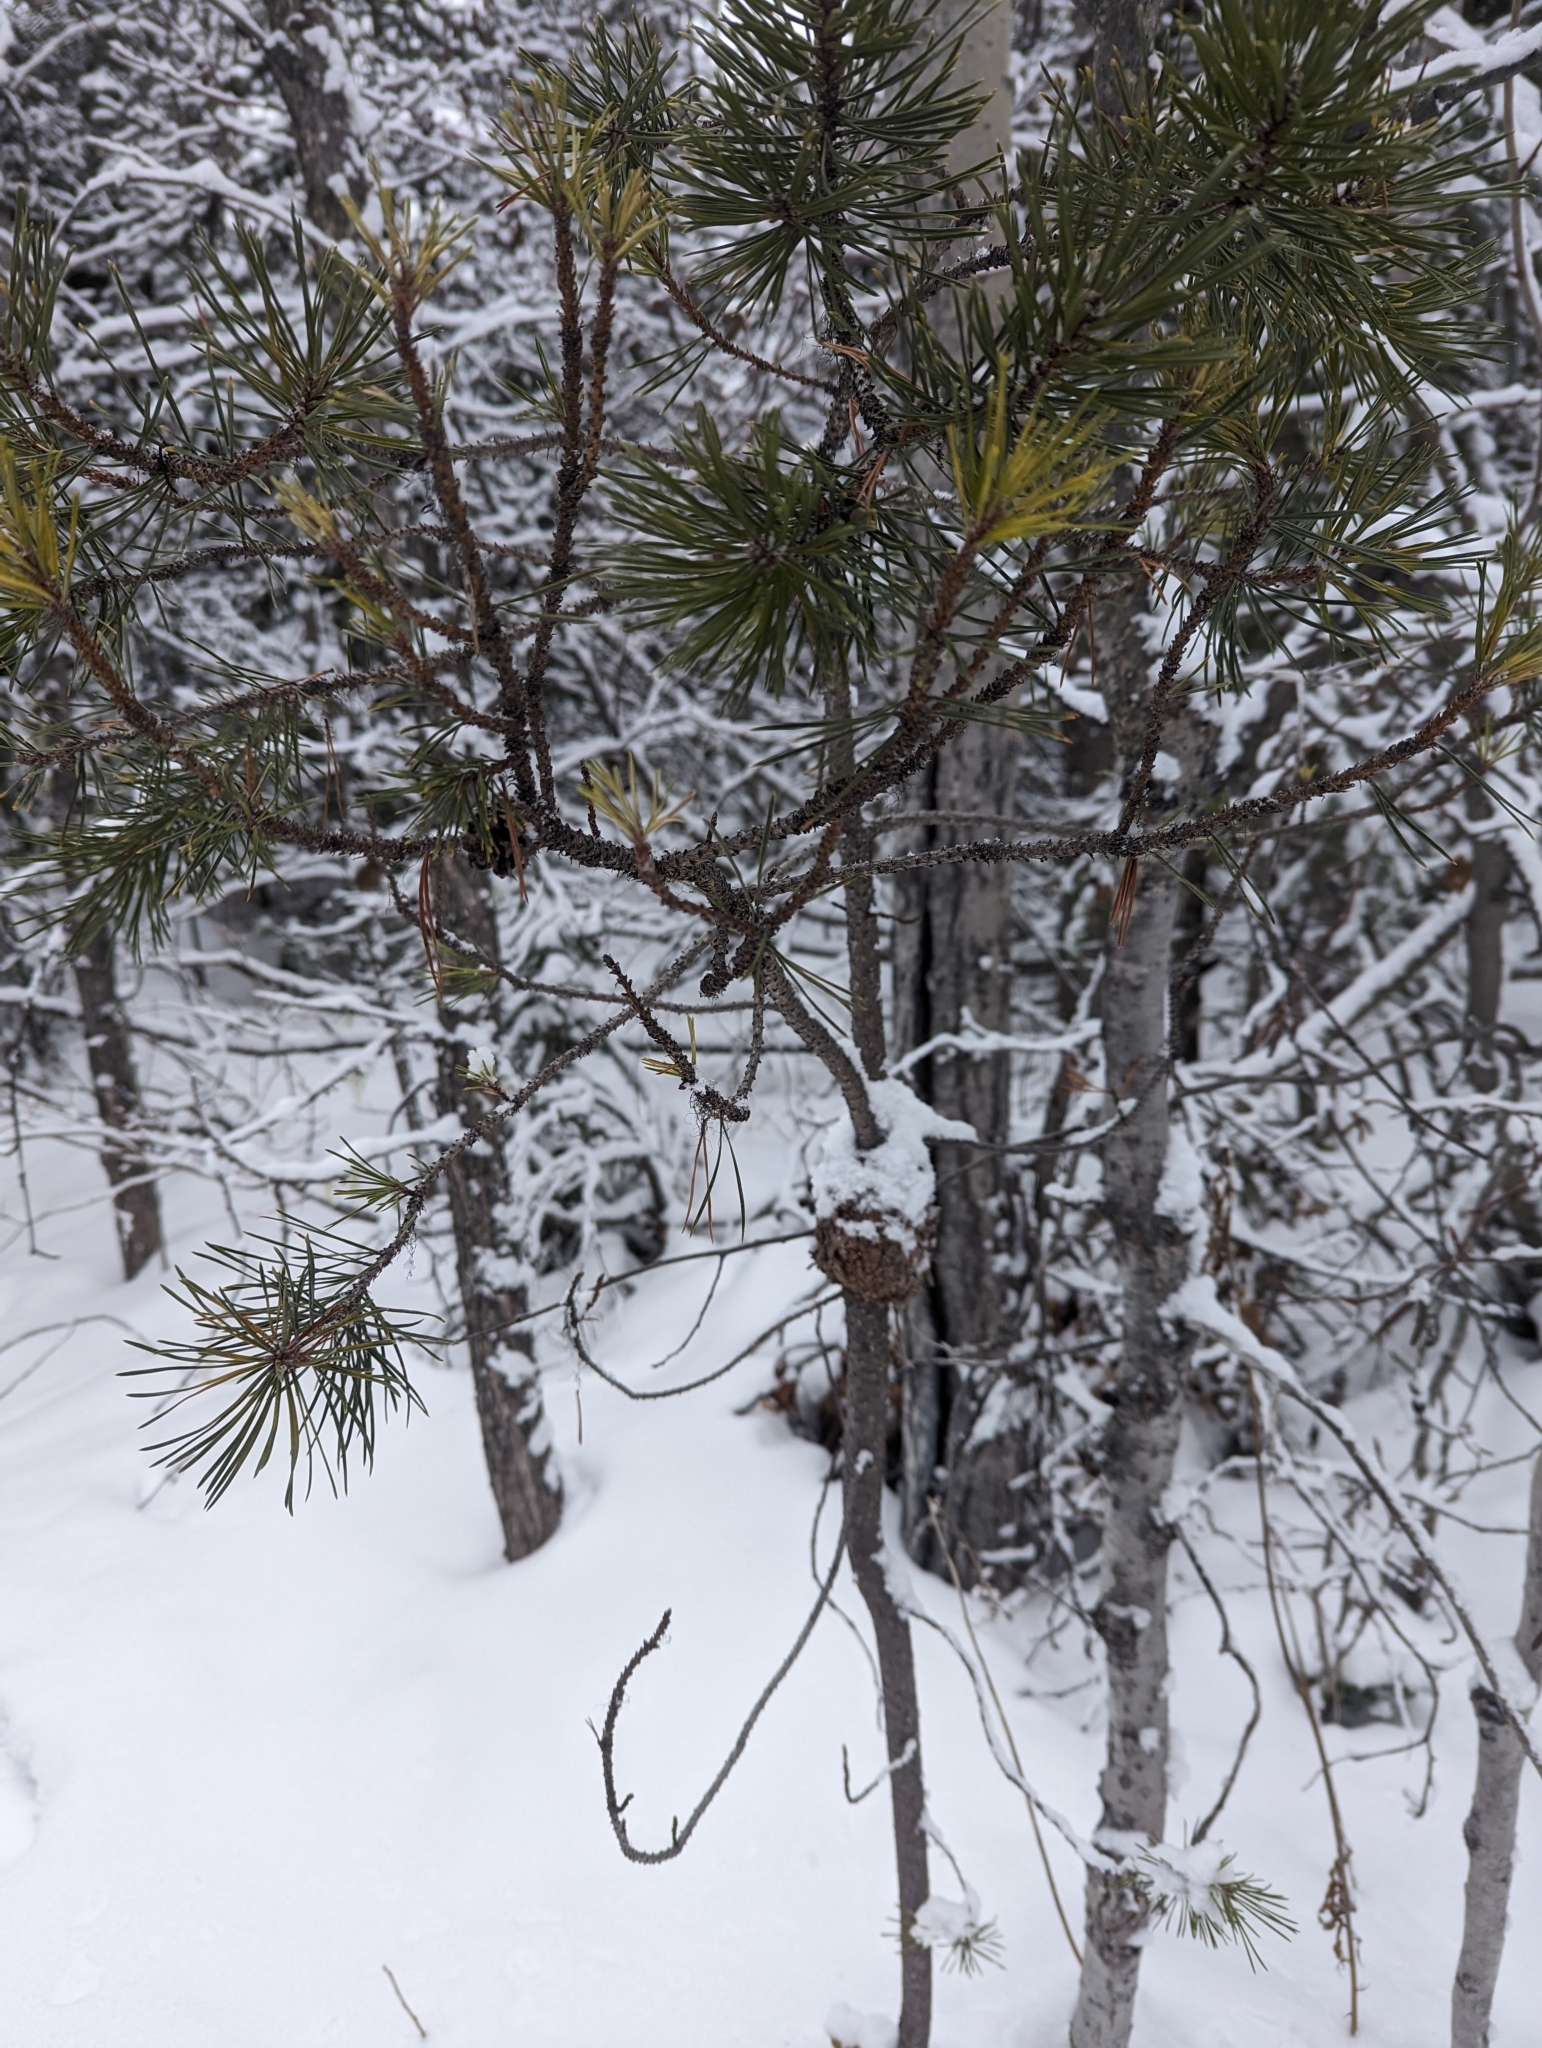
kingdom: Fungi
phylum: Basidiomycota
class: Pucciniomycetes
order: Pucciniales
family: Cronartiaceae
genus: Cronartium
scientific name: Cronartium harknessii
